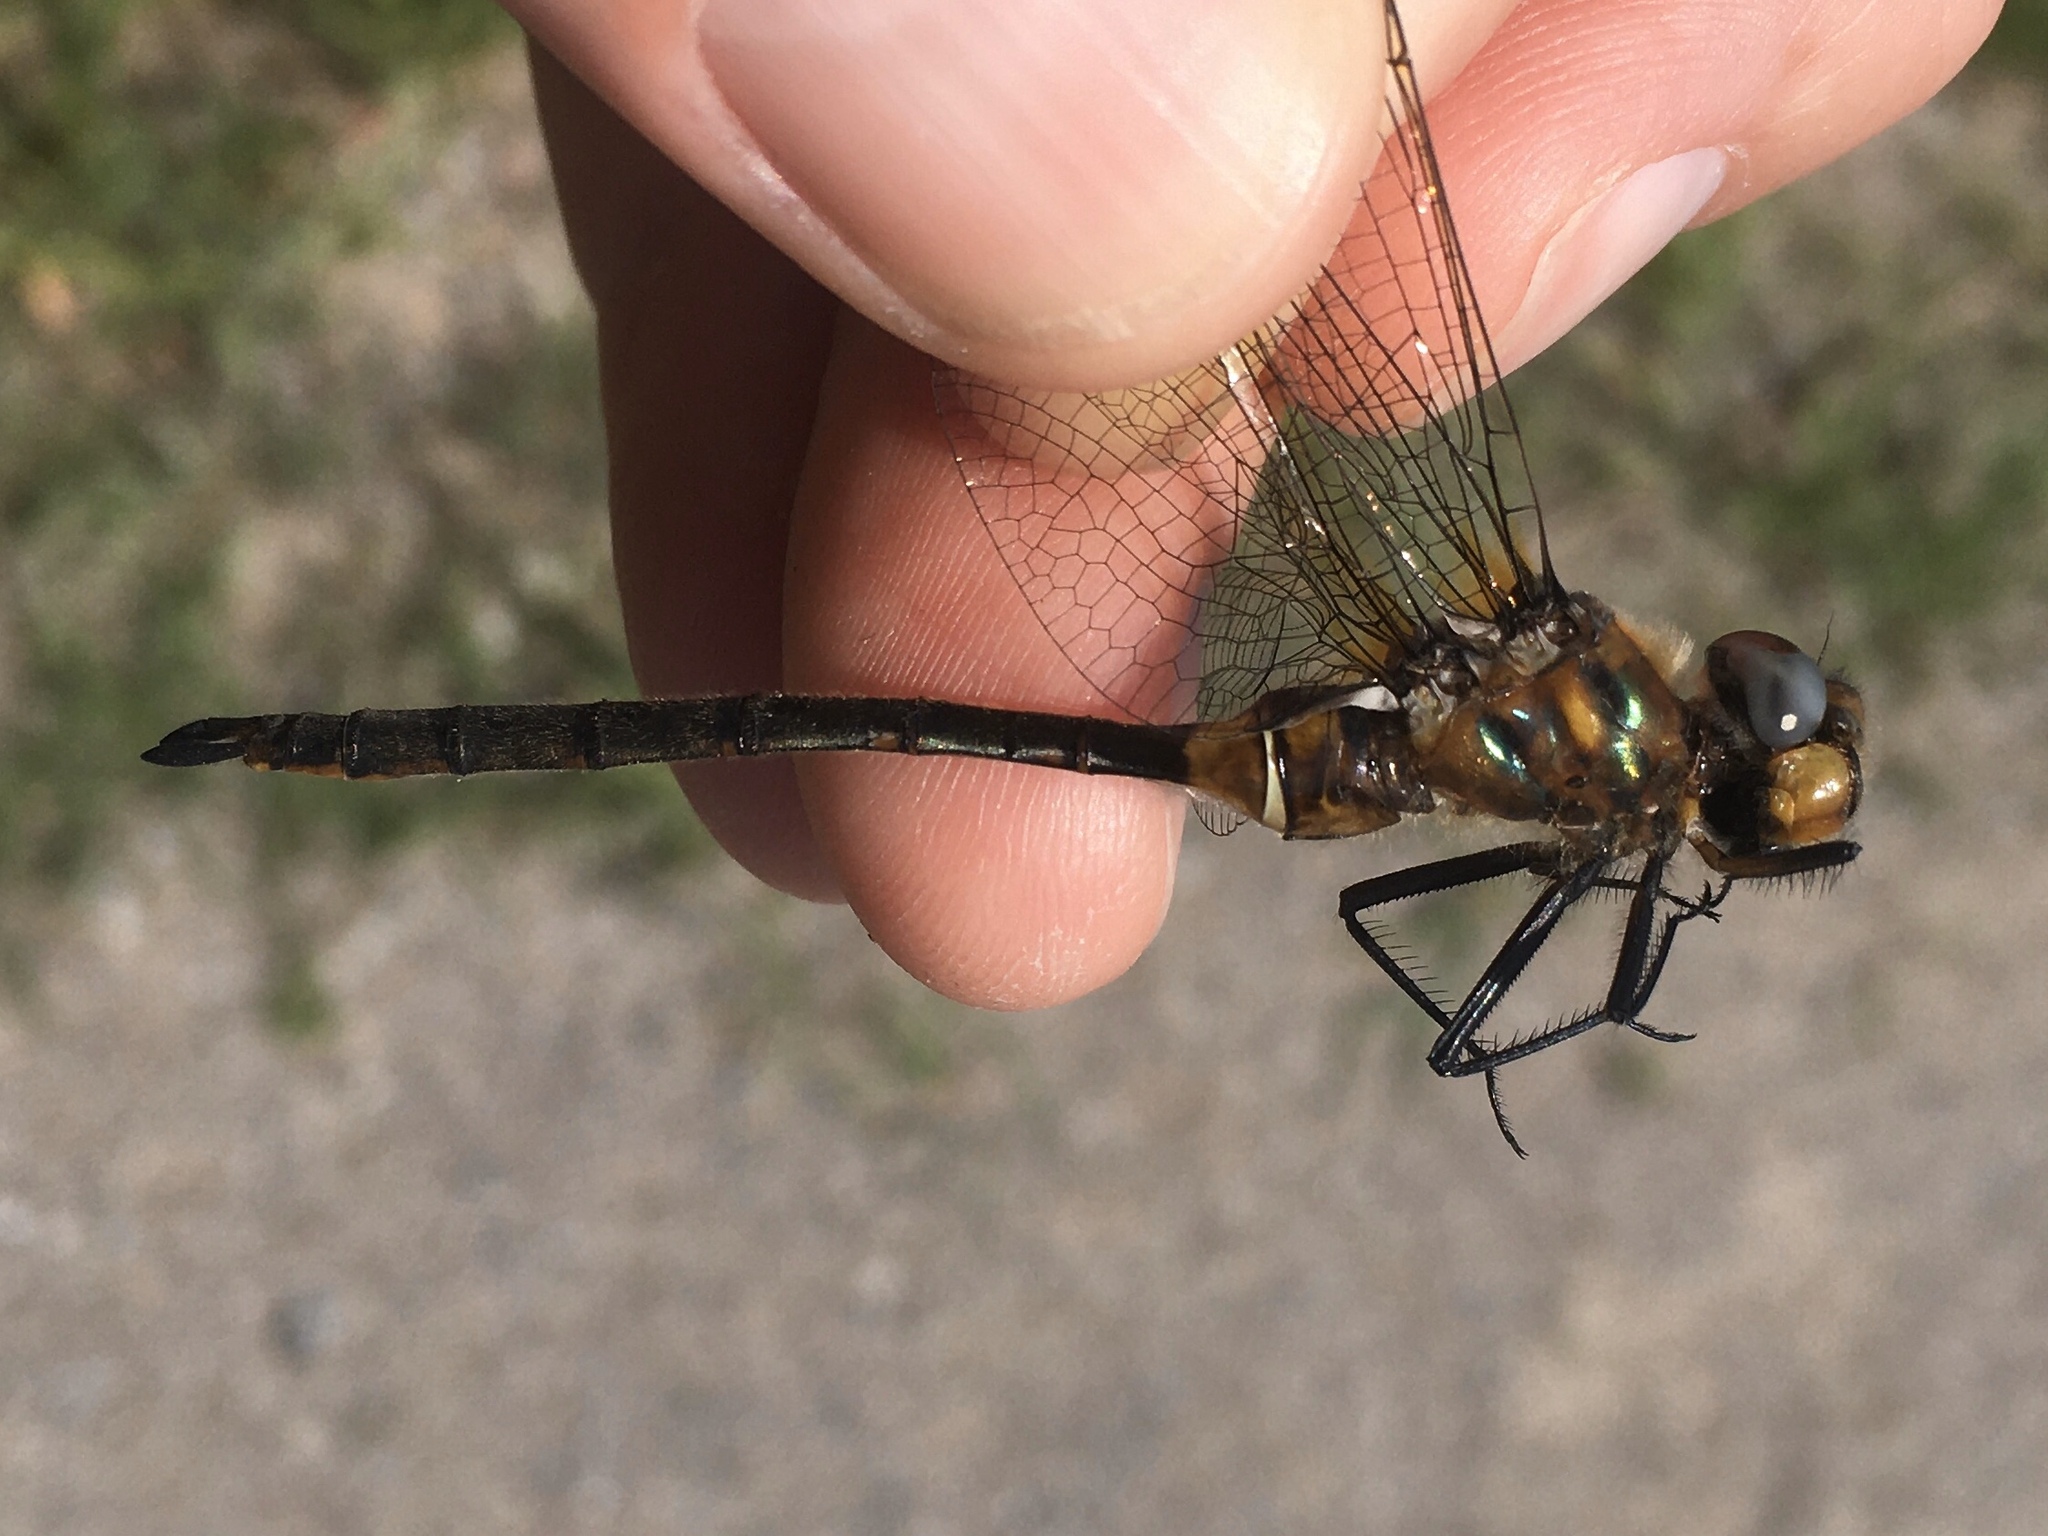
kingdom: Animalia
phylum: Arthropoda
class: Insecta
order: Odonata
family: Corduliidae
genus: Somatochlora
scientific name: Somatochlora kennedyi
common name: Kennedy's emerald
